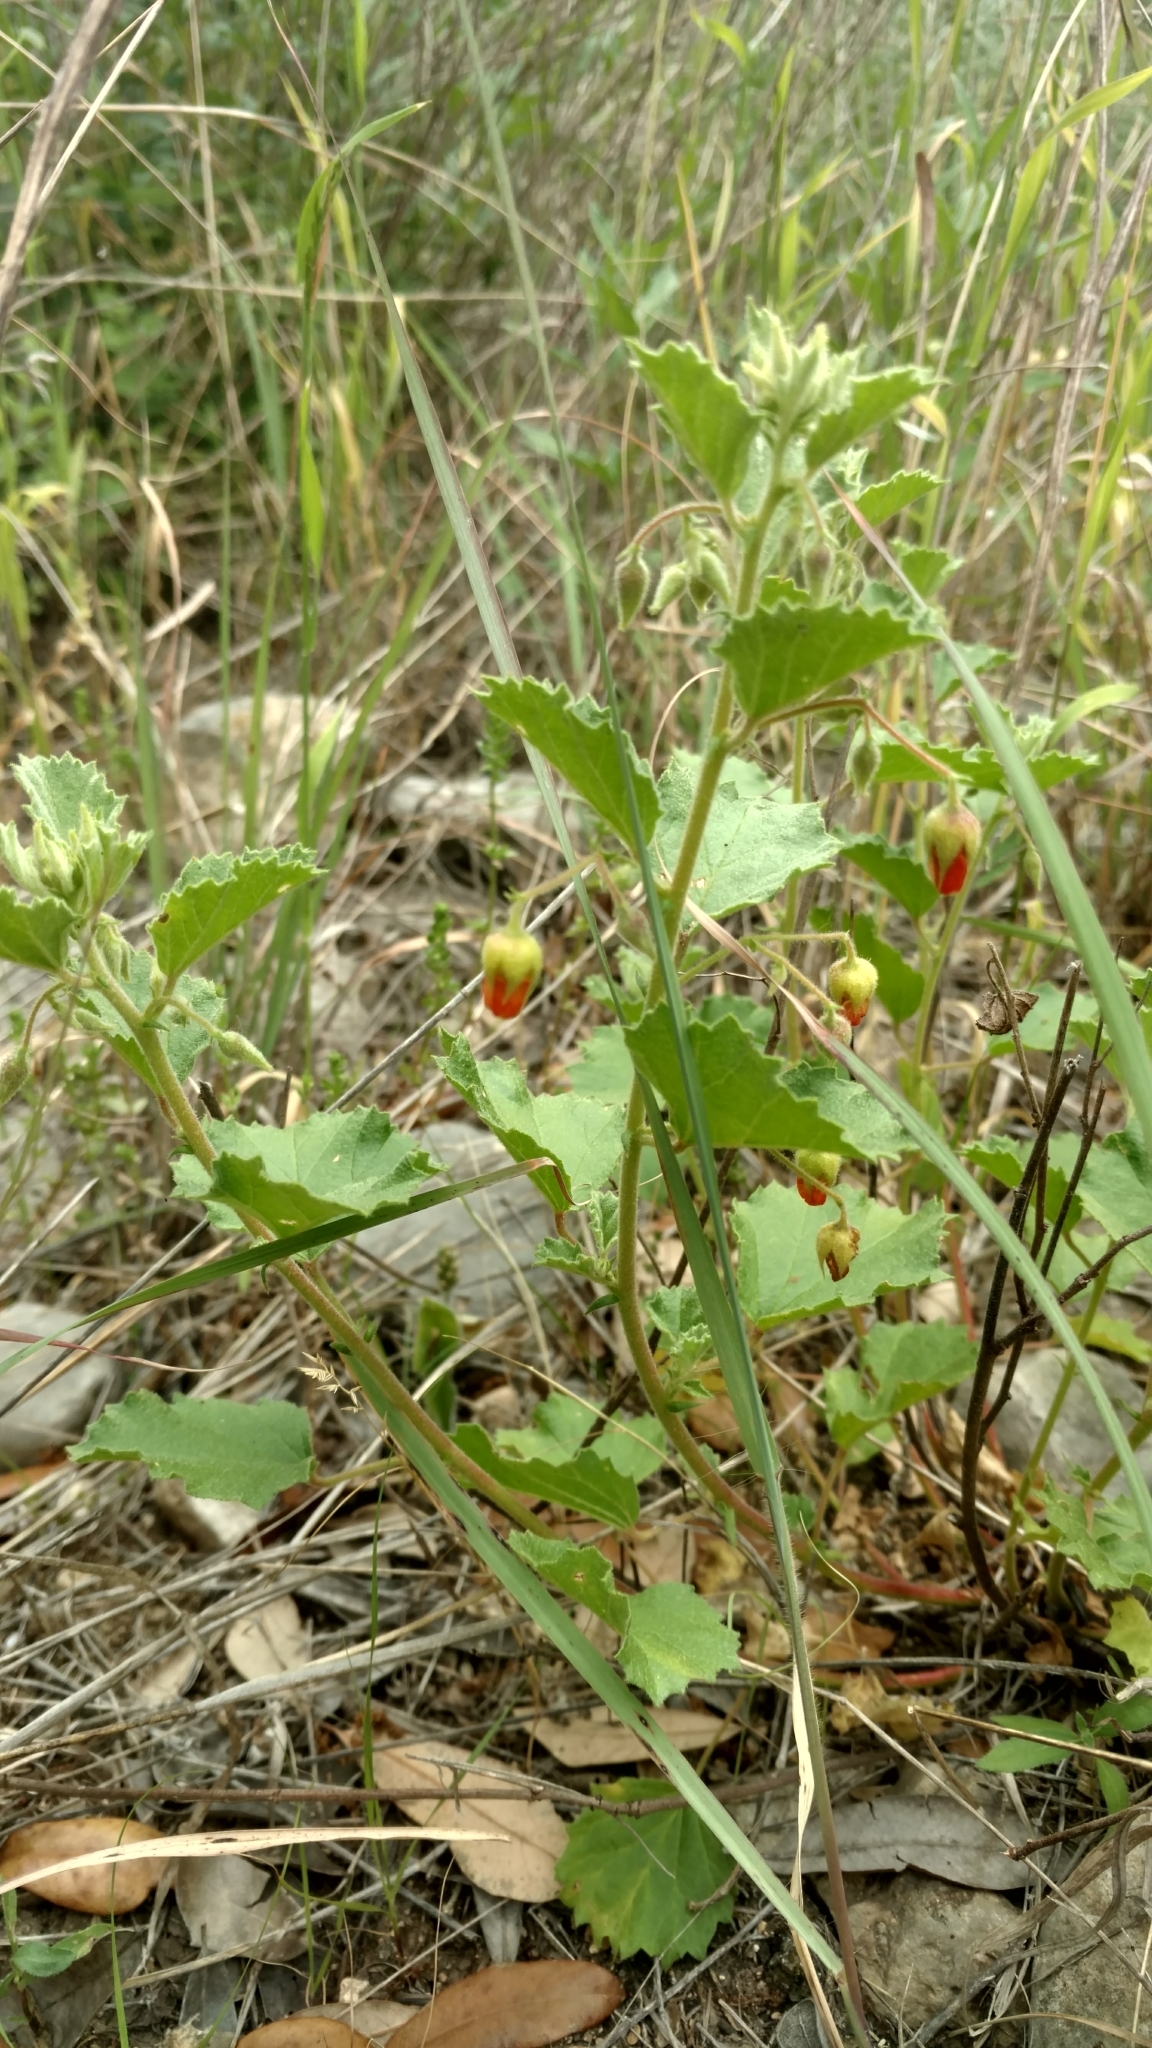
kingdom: Plantae
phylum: Tracheophyta
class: Magnoliopsida
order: Malvales
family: Malvaceae
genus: Hermannia
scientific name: Hermannia texana
